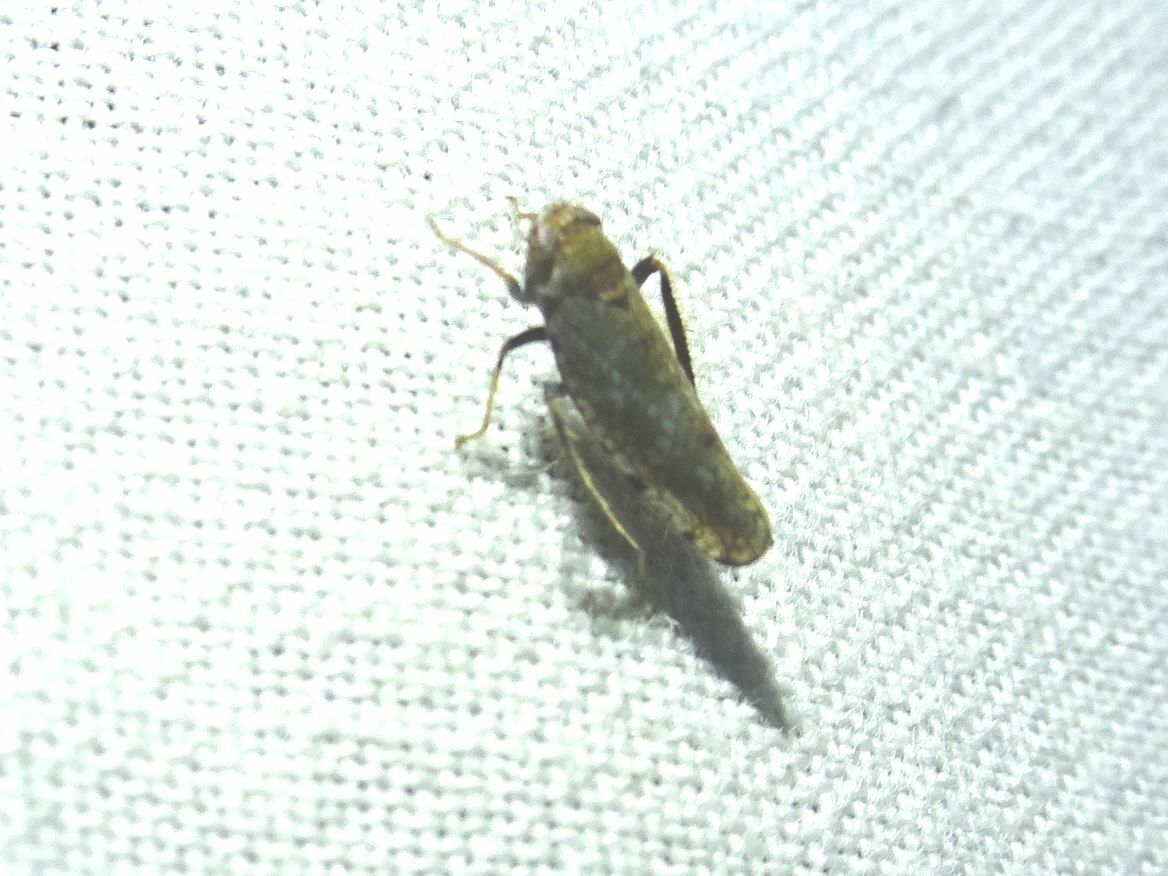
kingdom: Animalia
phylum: Arthropoda
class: Insecta
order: Hemiptera
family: Cicadellidae
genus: Orientus
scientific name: Orientus ishidae
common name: Japanese leafhopper
